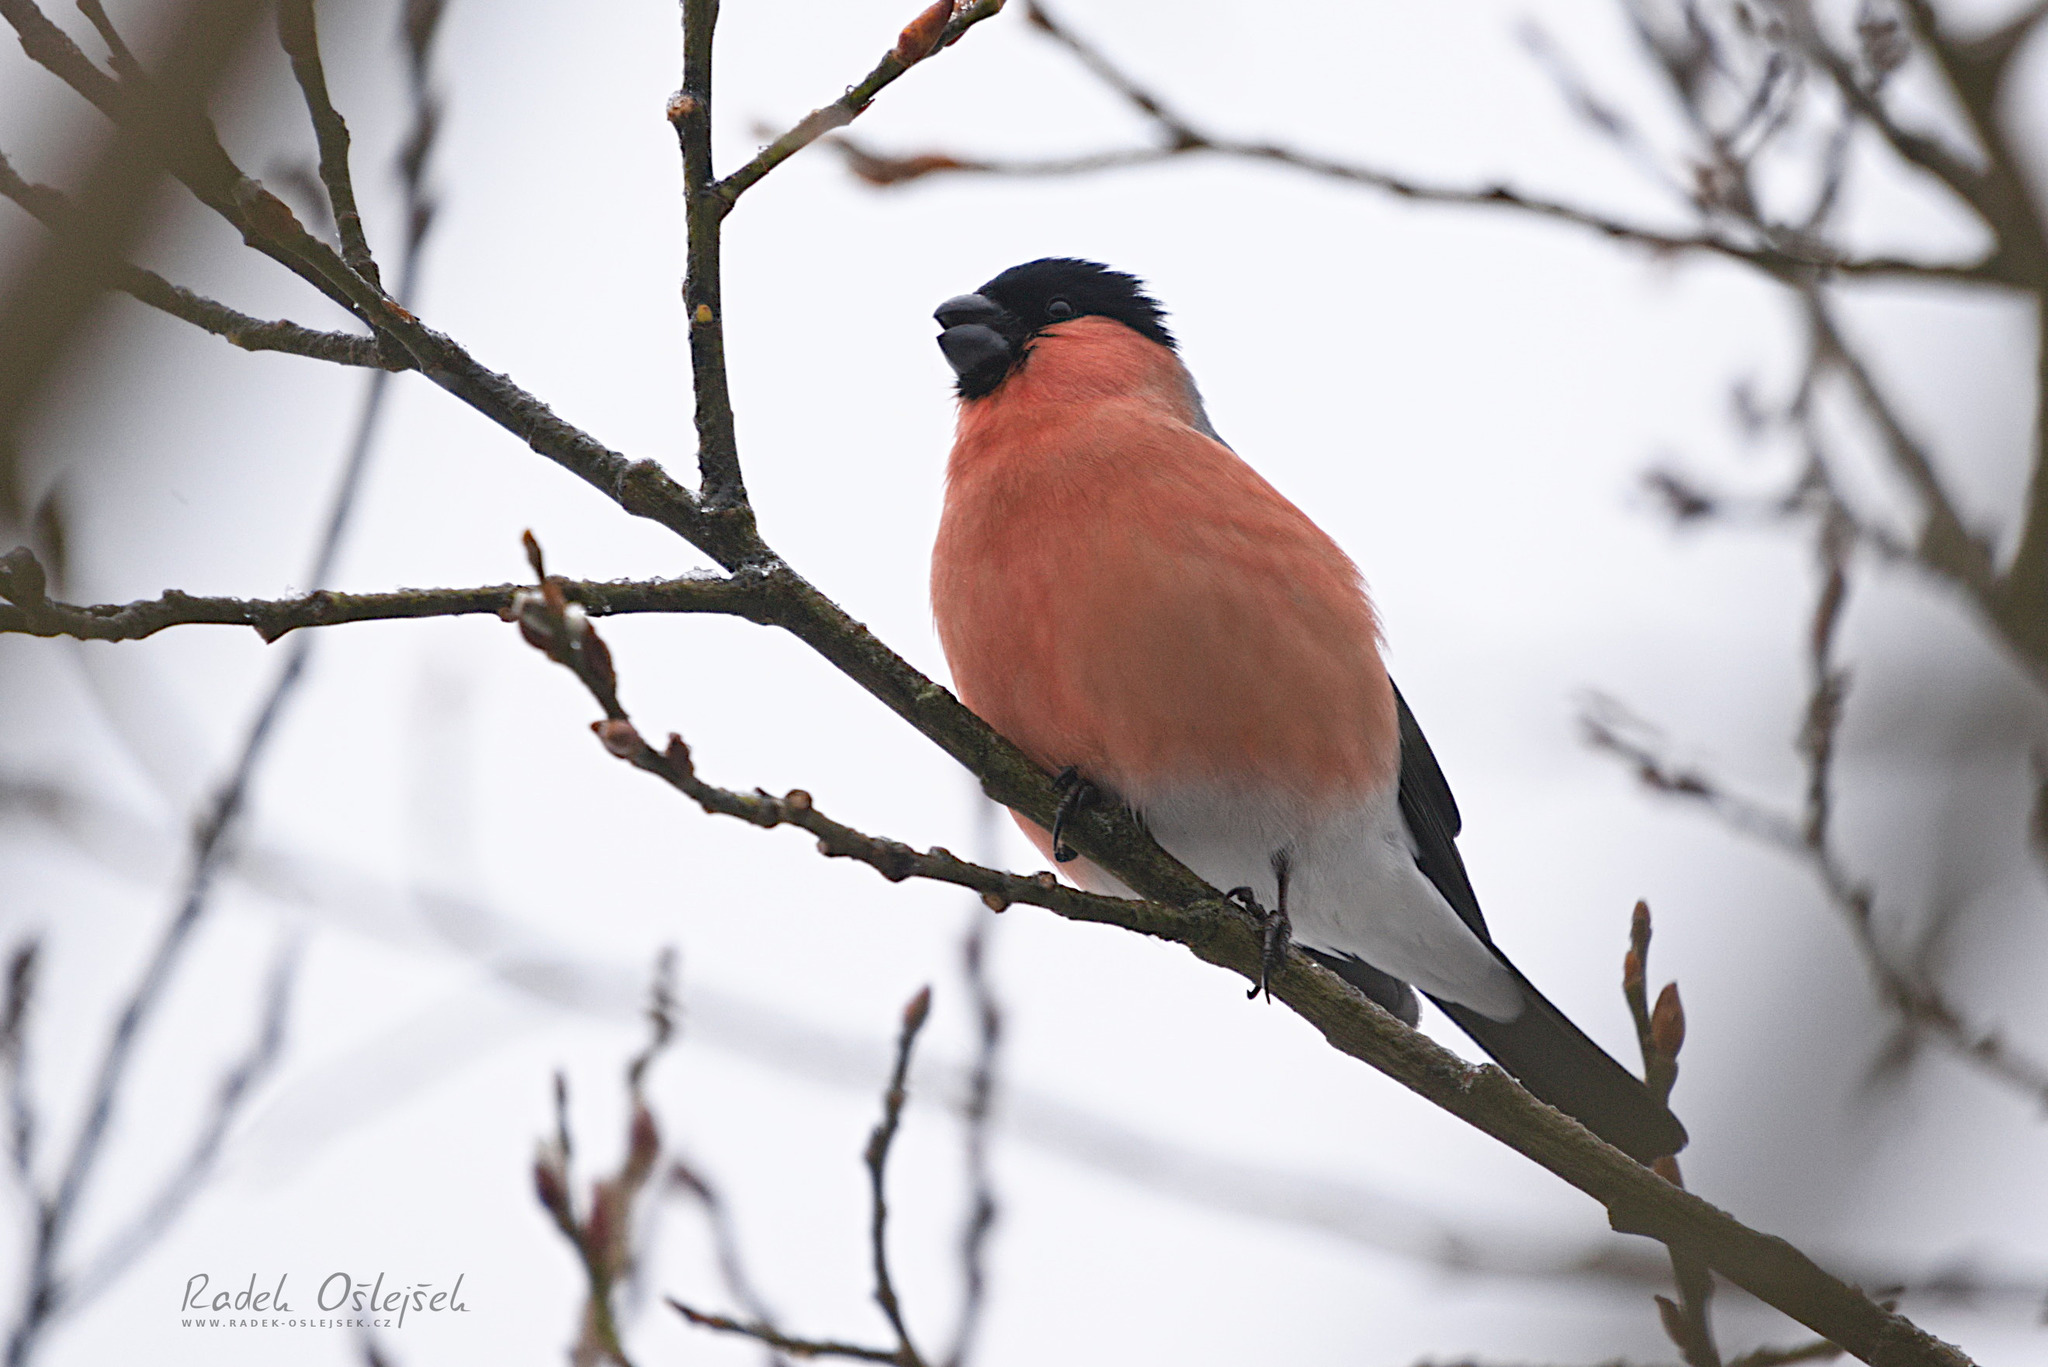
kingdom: Animalia
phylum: Chordata
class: Aves
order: Passeriformes
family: Fringillidae
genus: Pyrrhula
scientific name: Pyrrhula pyrrhula
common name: Eurasian bullfinch
